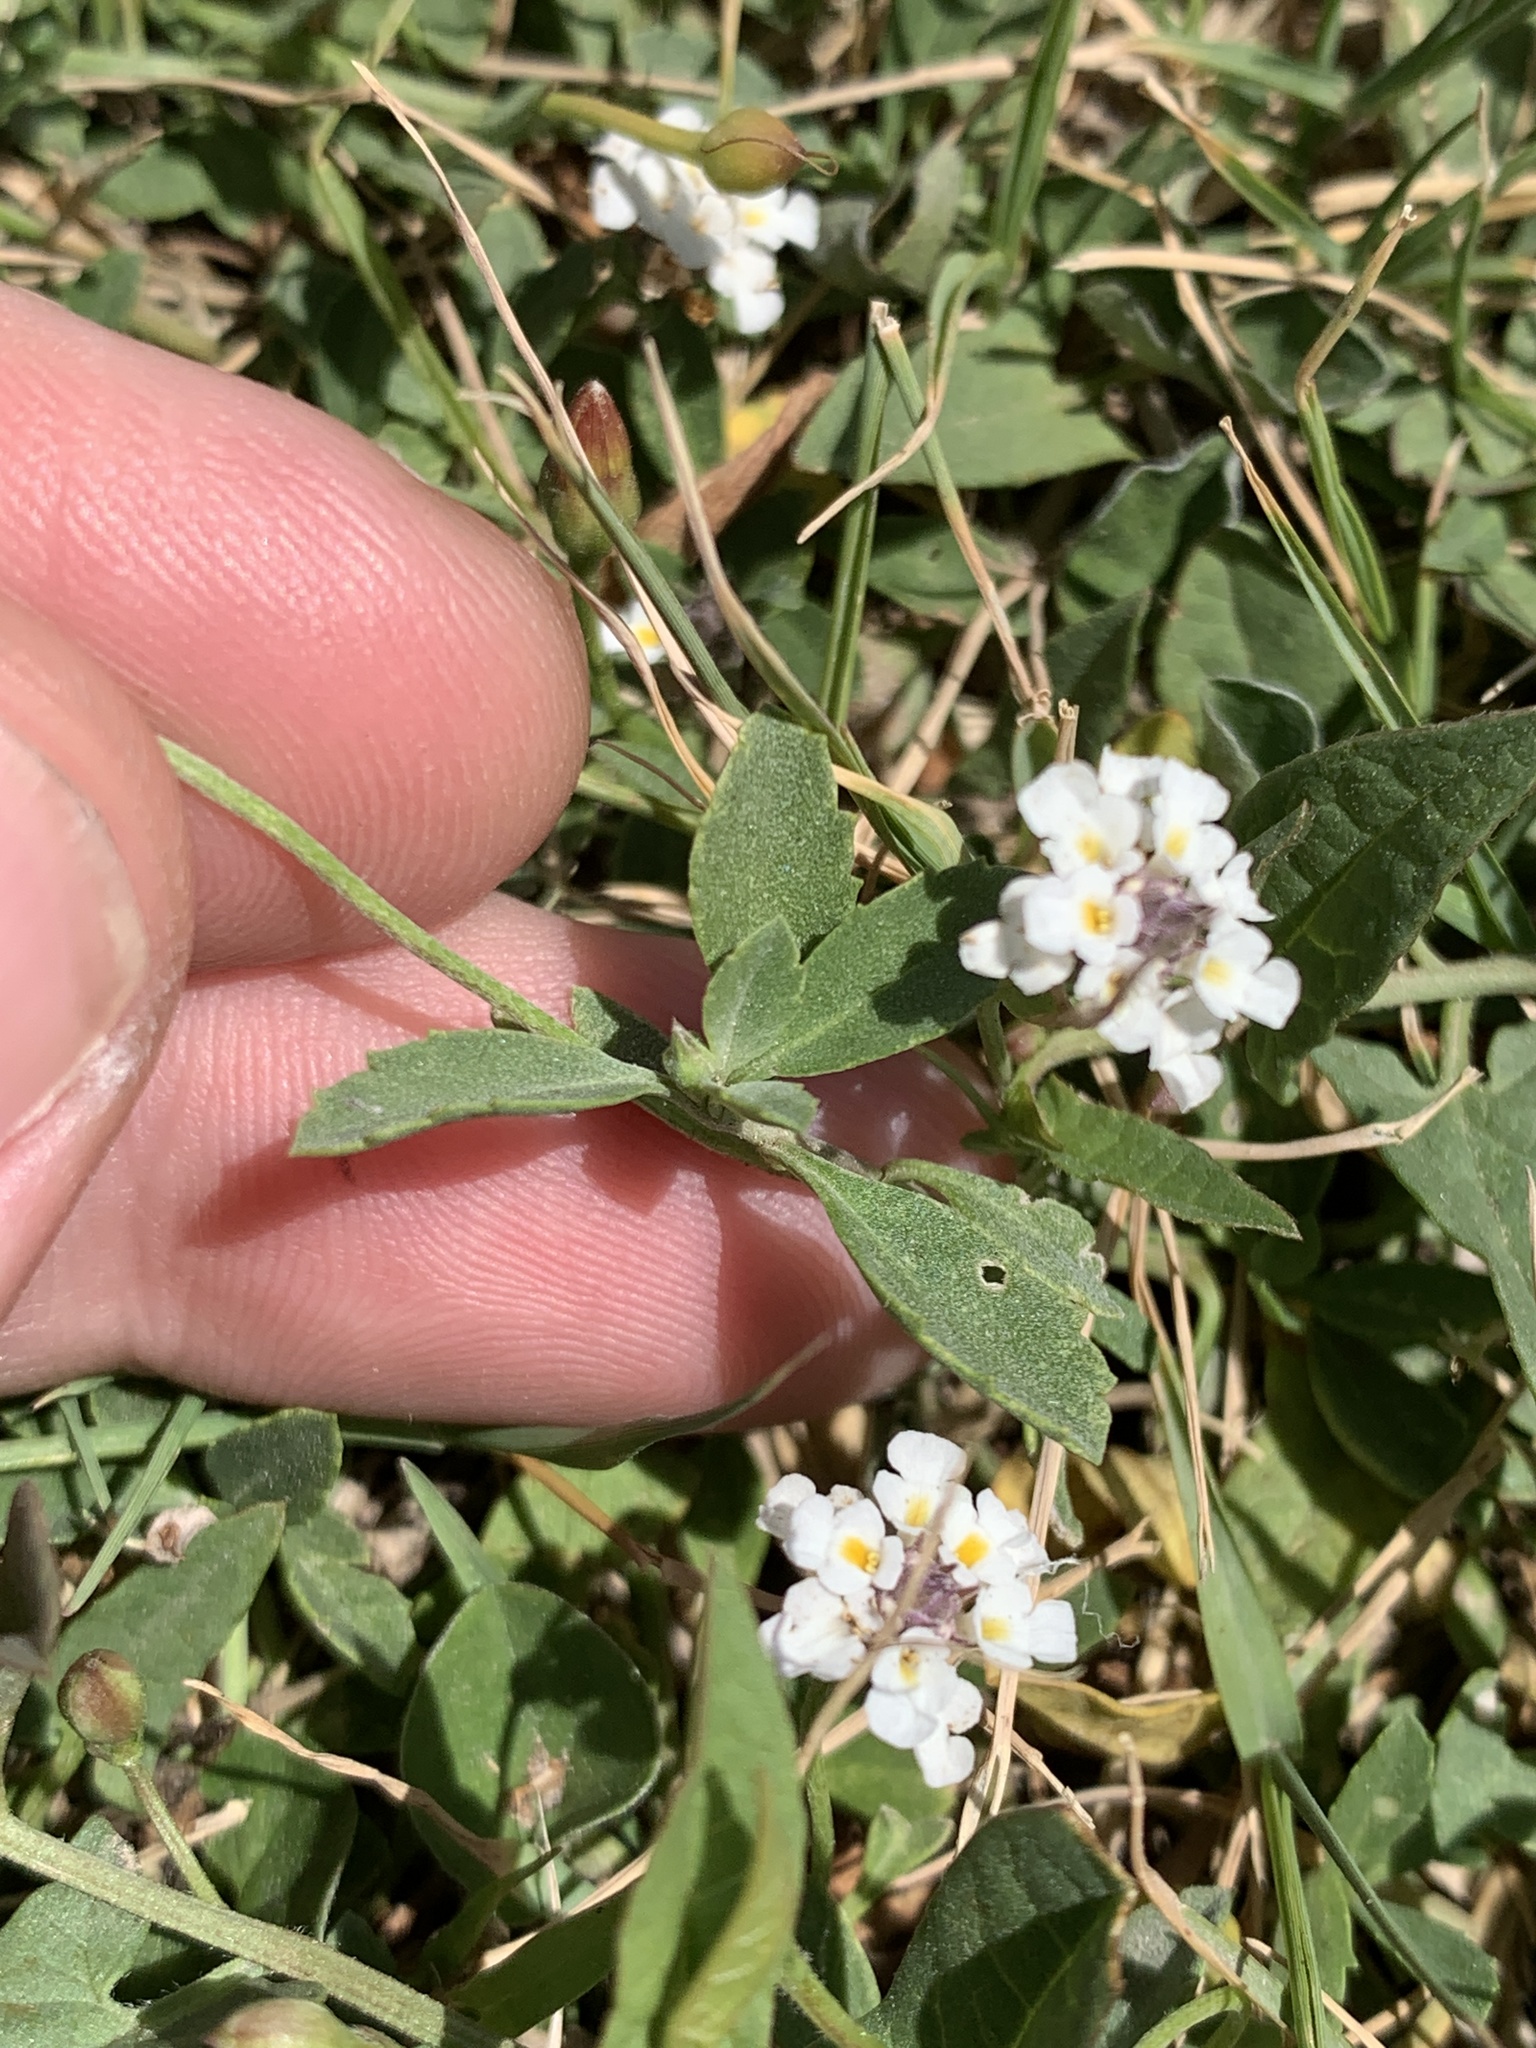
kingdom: Plantae
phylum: Tracheophyta
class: Magnoliopsida
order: Lamiales
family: Verbenaceae
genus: Phyla
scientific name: Phyla nodiflora
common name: Frogfruit
